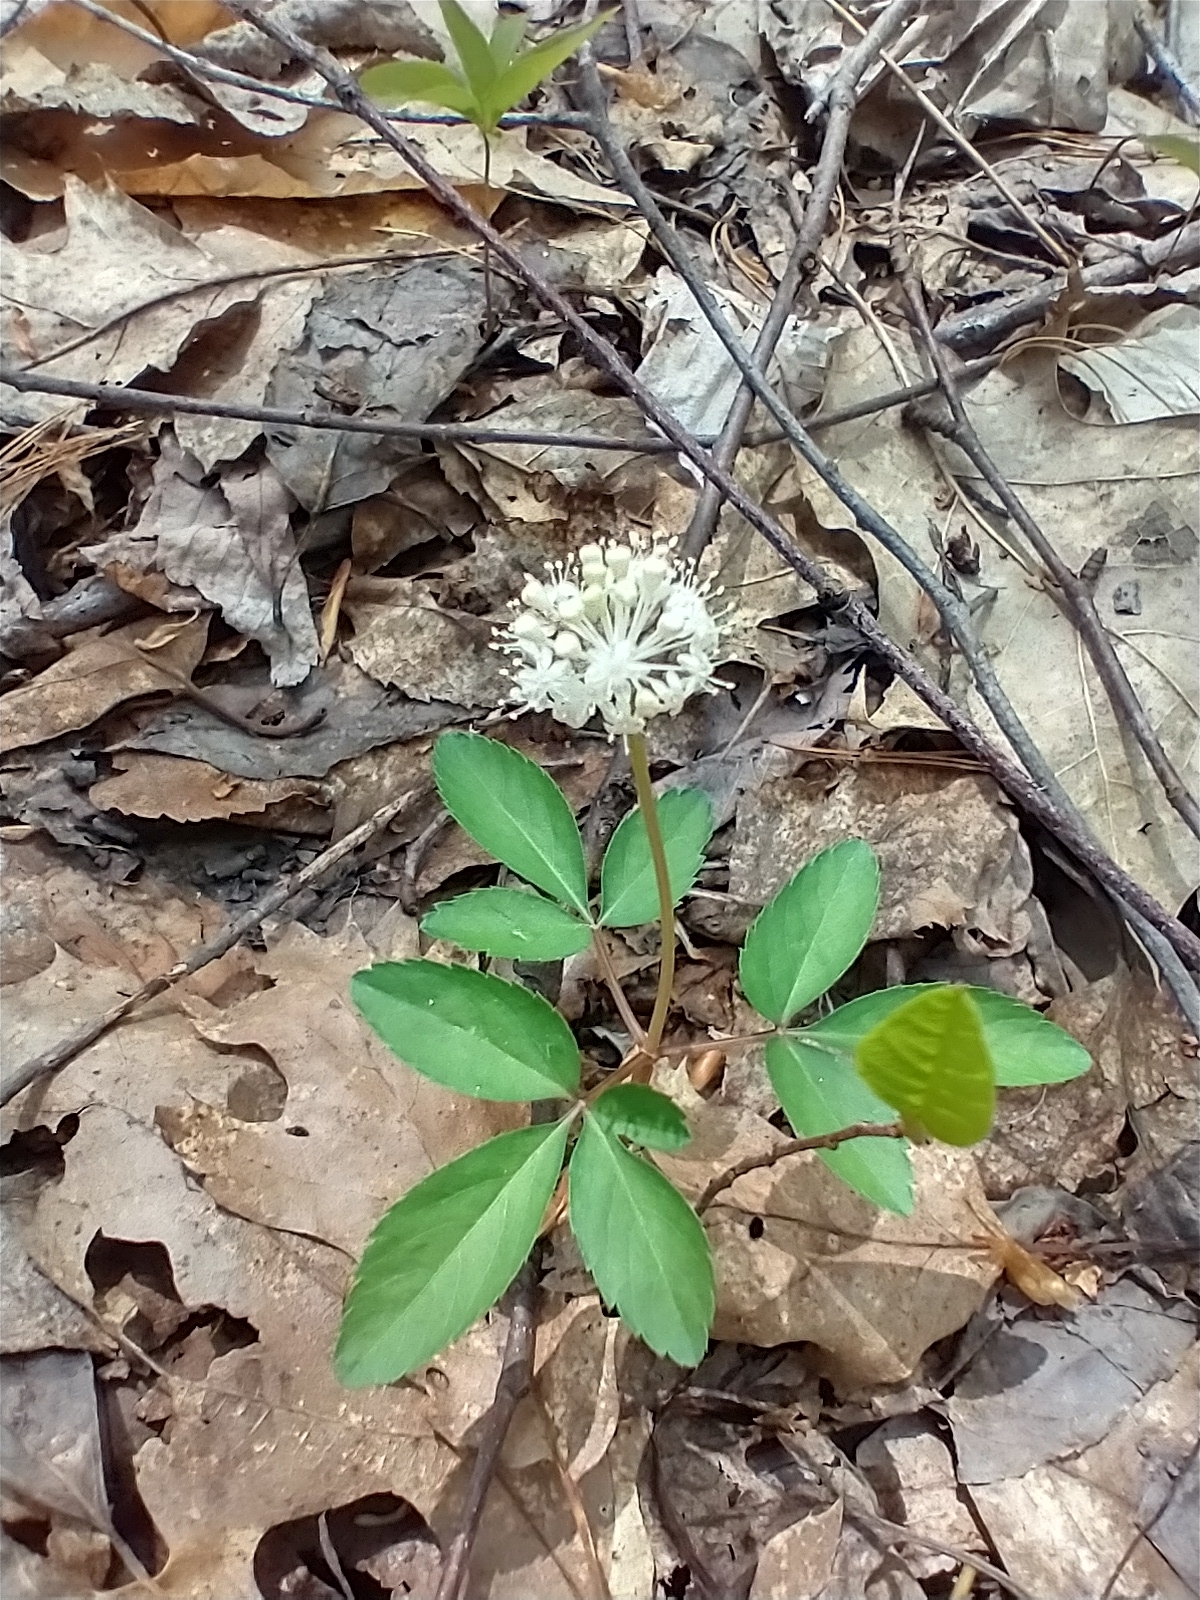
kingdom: Plantae
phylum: Tracheophyta
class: Magnoliopsida
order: Apiales
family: Araliaceae
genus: Panax
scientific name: Panax trifolius
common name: Dwarf ginseng
